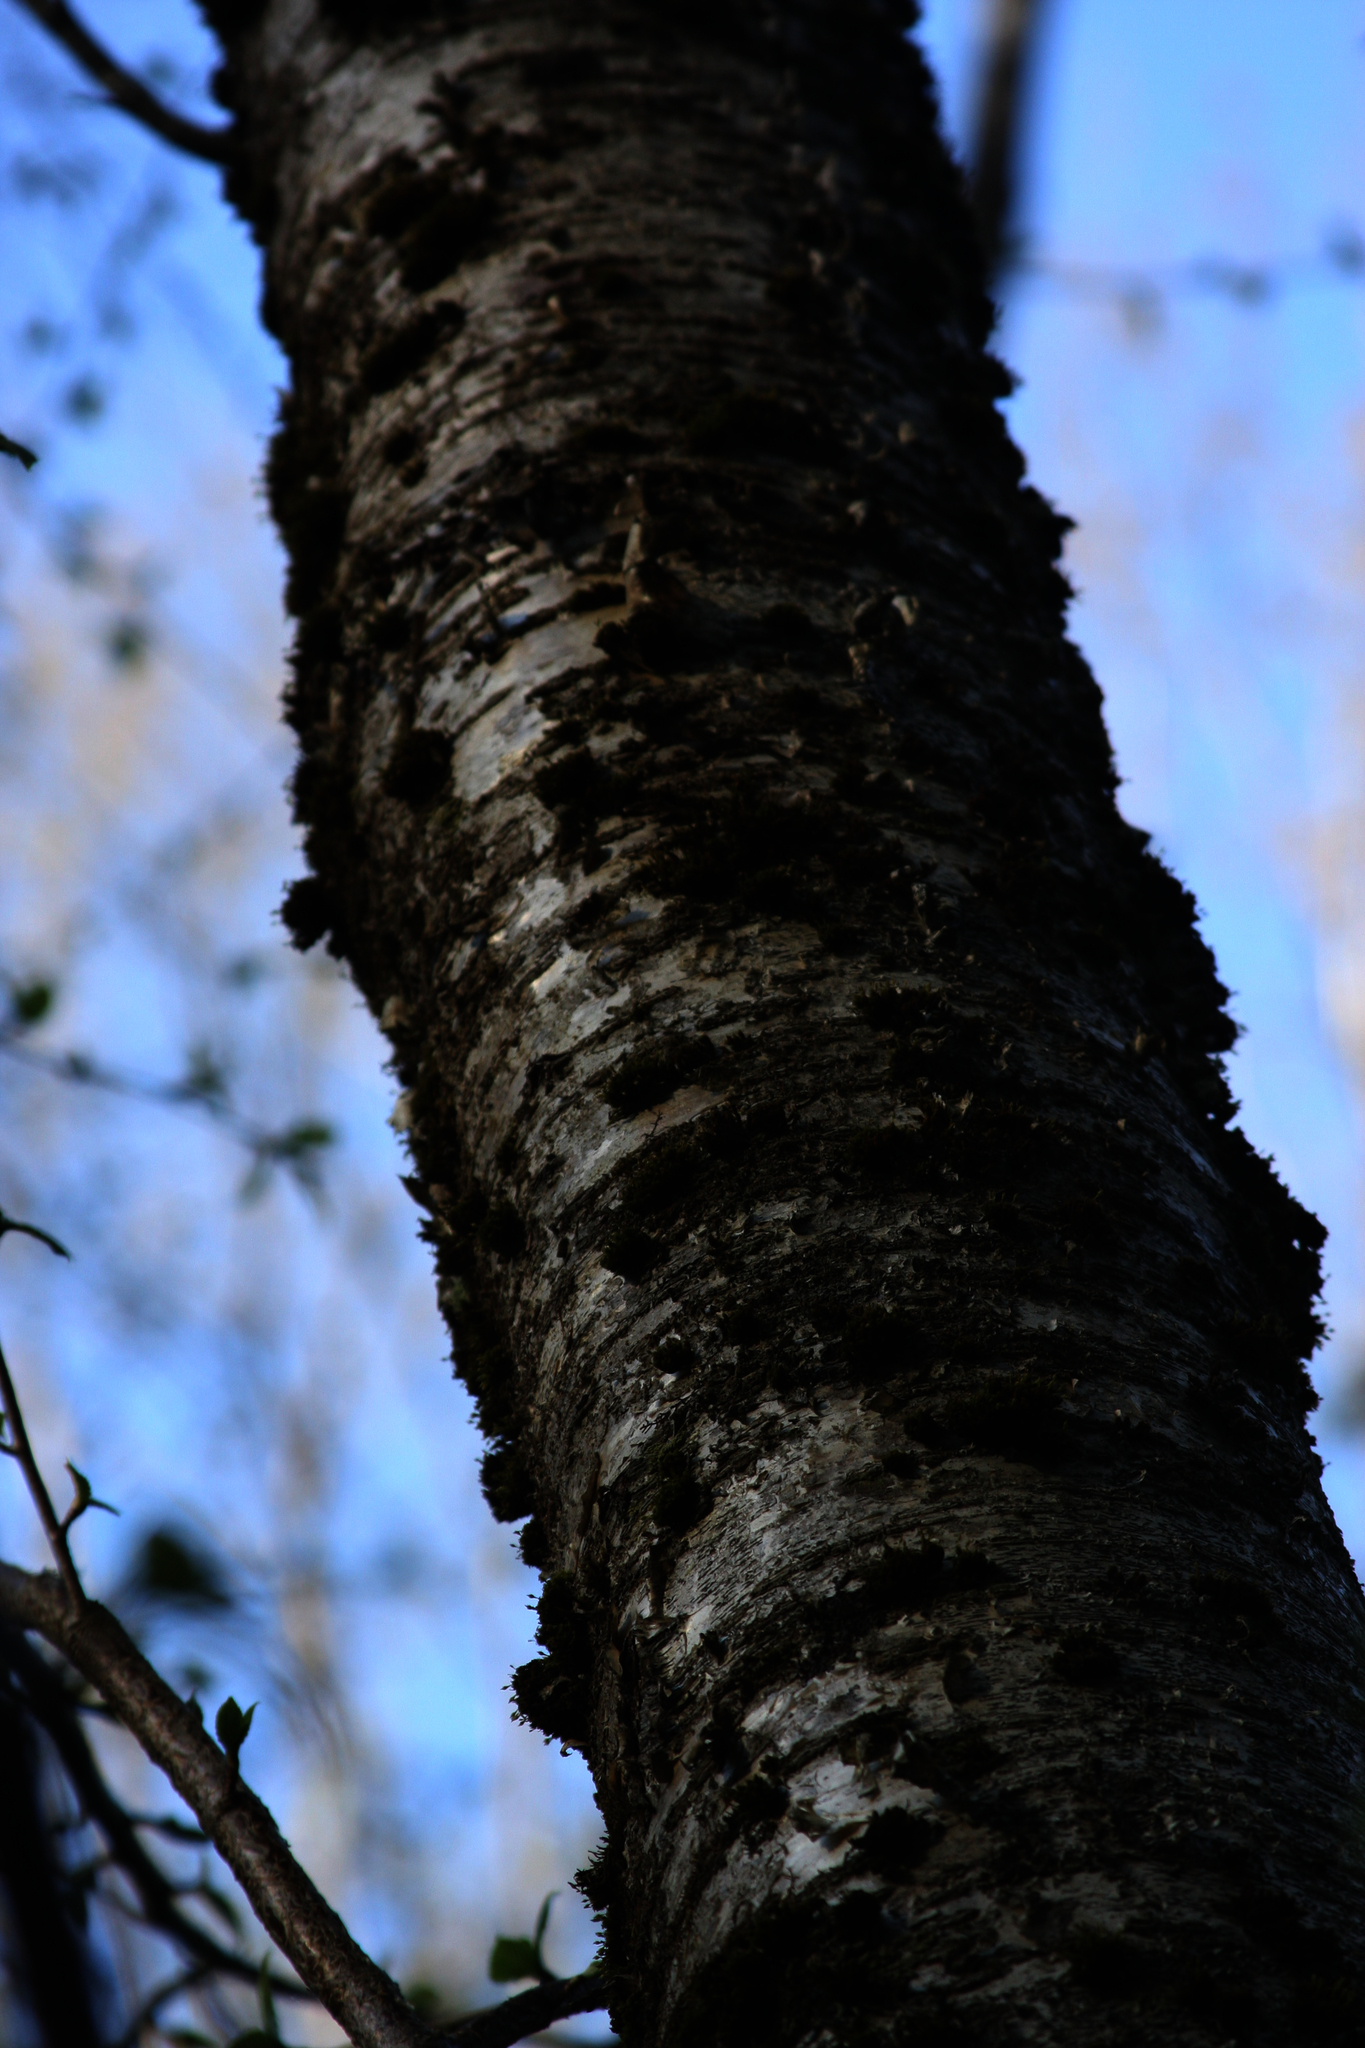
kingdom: Plantae
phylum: Bryophyta
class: Bryopsida
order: Orthotrichales
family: Orthotrichaceae
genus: Ulota
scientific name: Ulota crispa
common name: Crisped pincushion moss
